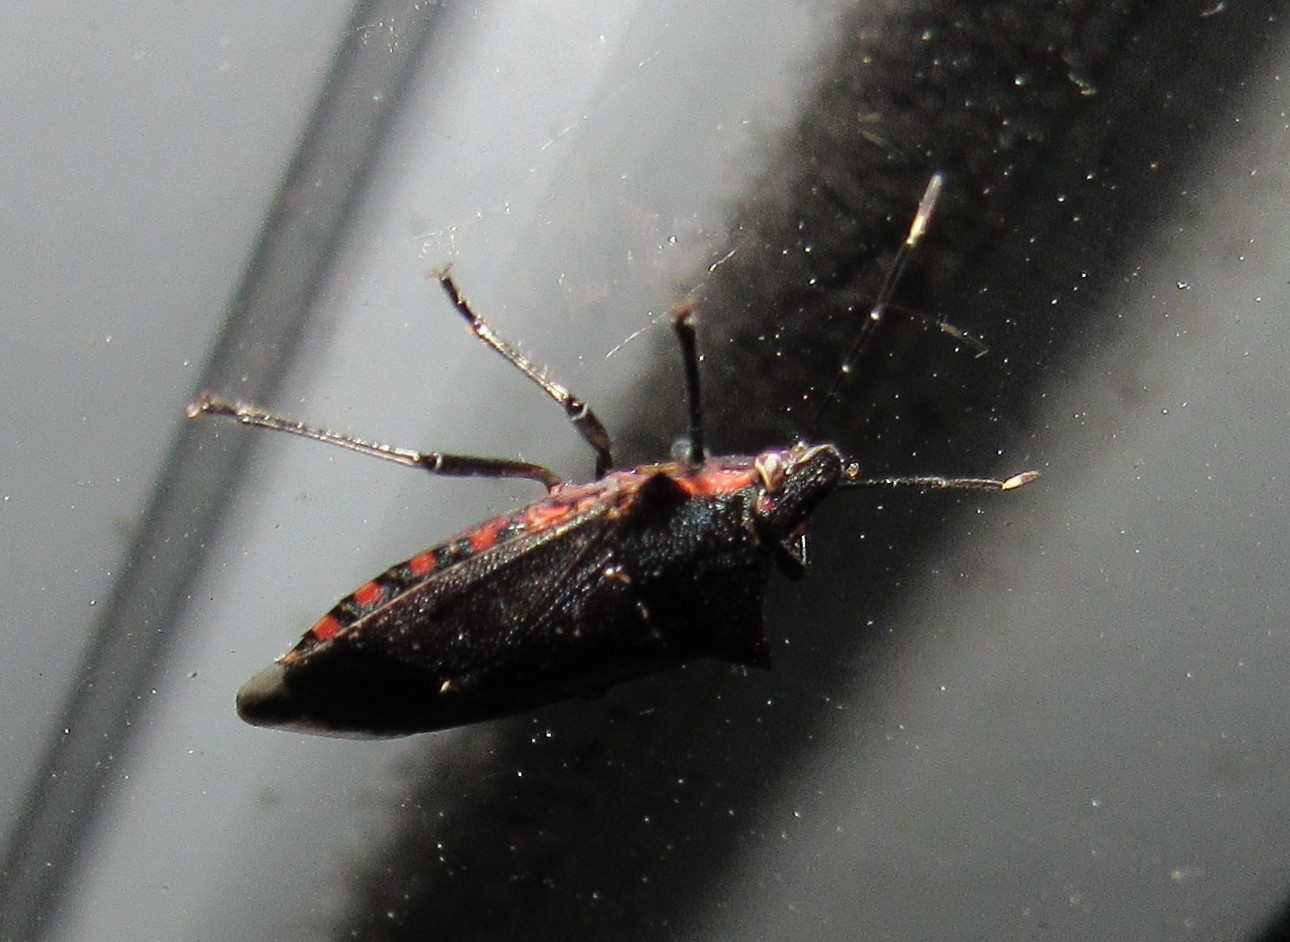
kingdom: Animalia
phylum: Arthropoda
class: Insecta
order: Hemiptera
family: Pentatomidae
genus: Podisus
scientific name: Podisus nigrispinus
